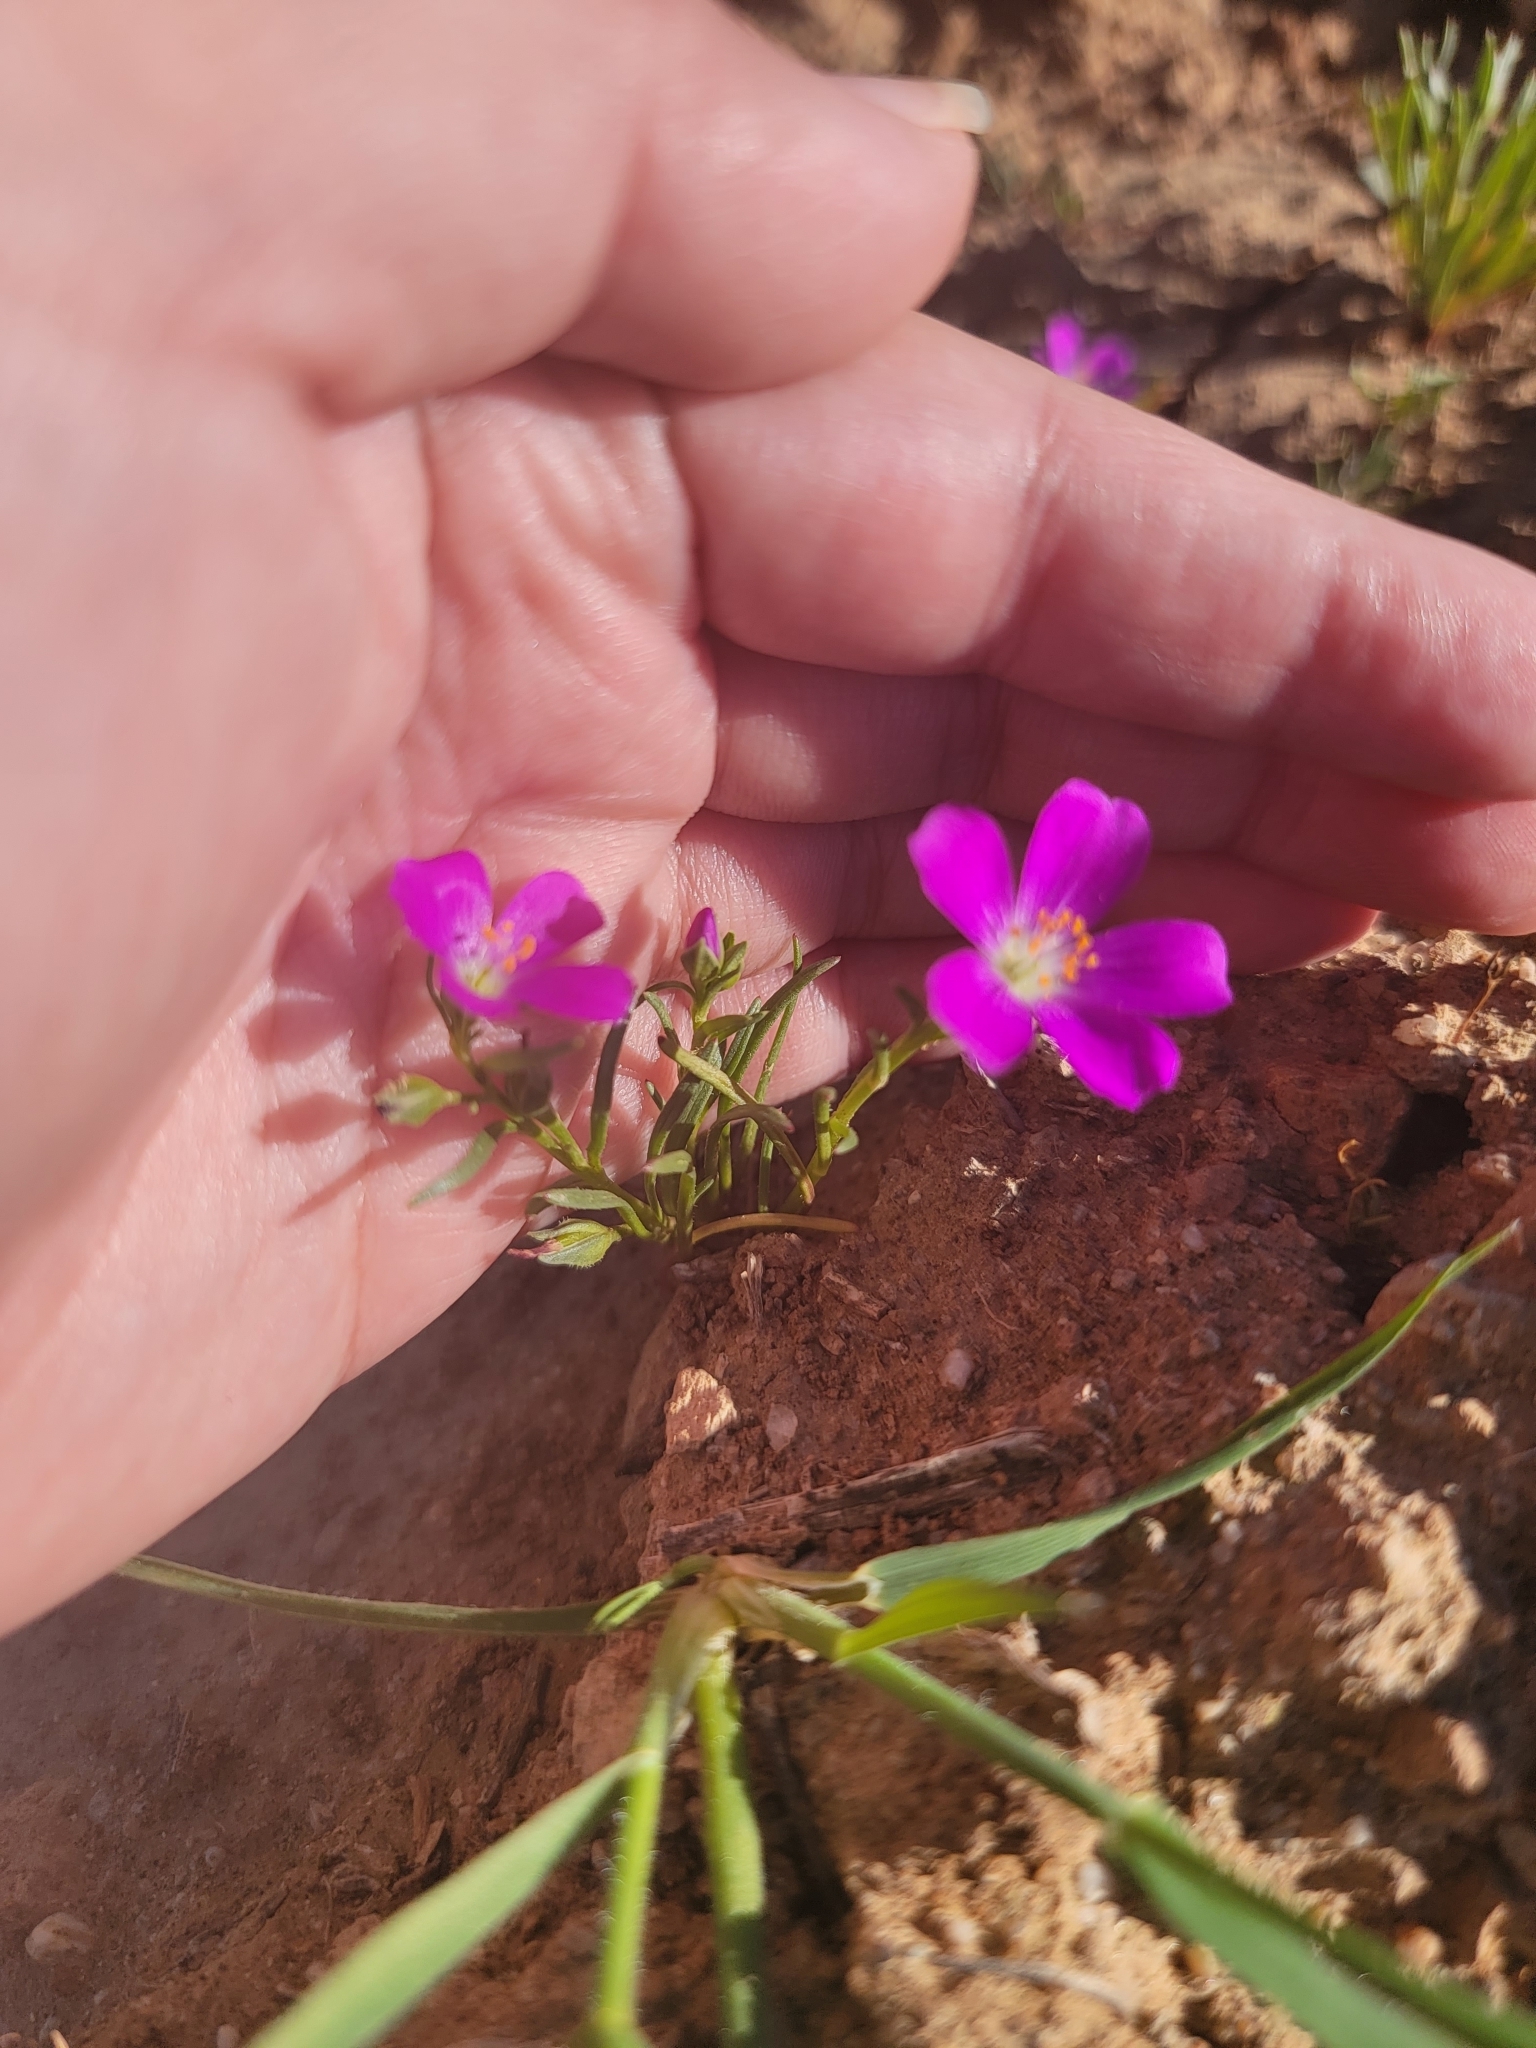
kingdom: Plantae
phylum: Tracheophyta
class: Magnoliopsida
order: Caryophyllales
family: Montiaceae
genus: Calandrinia
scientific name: Calandrinia menziesii
